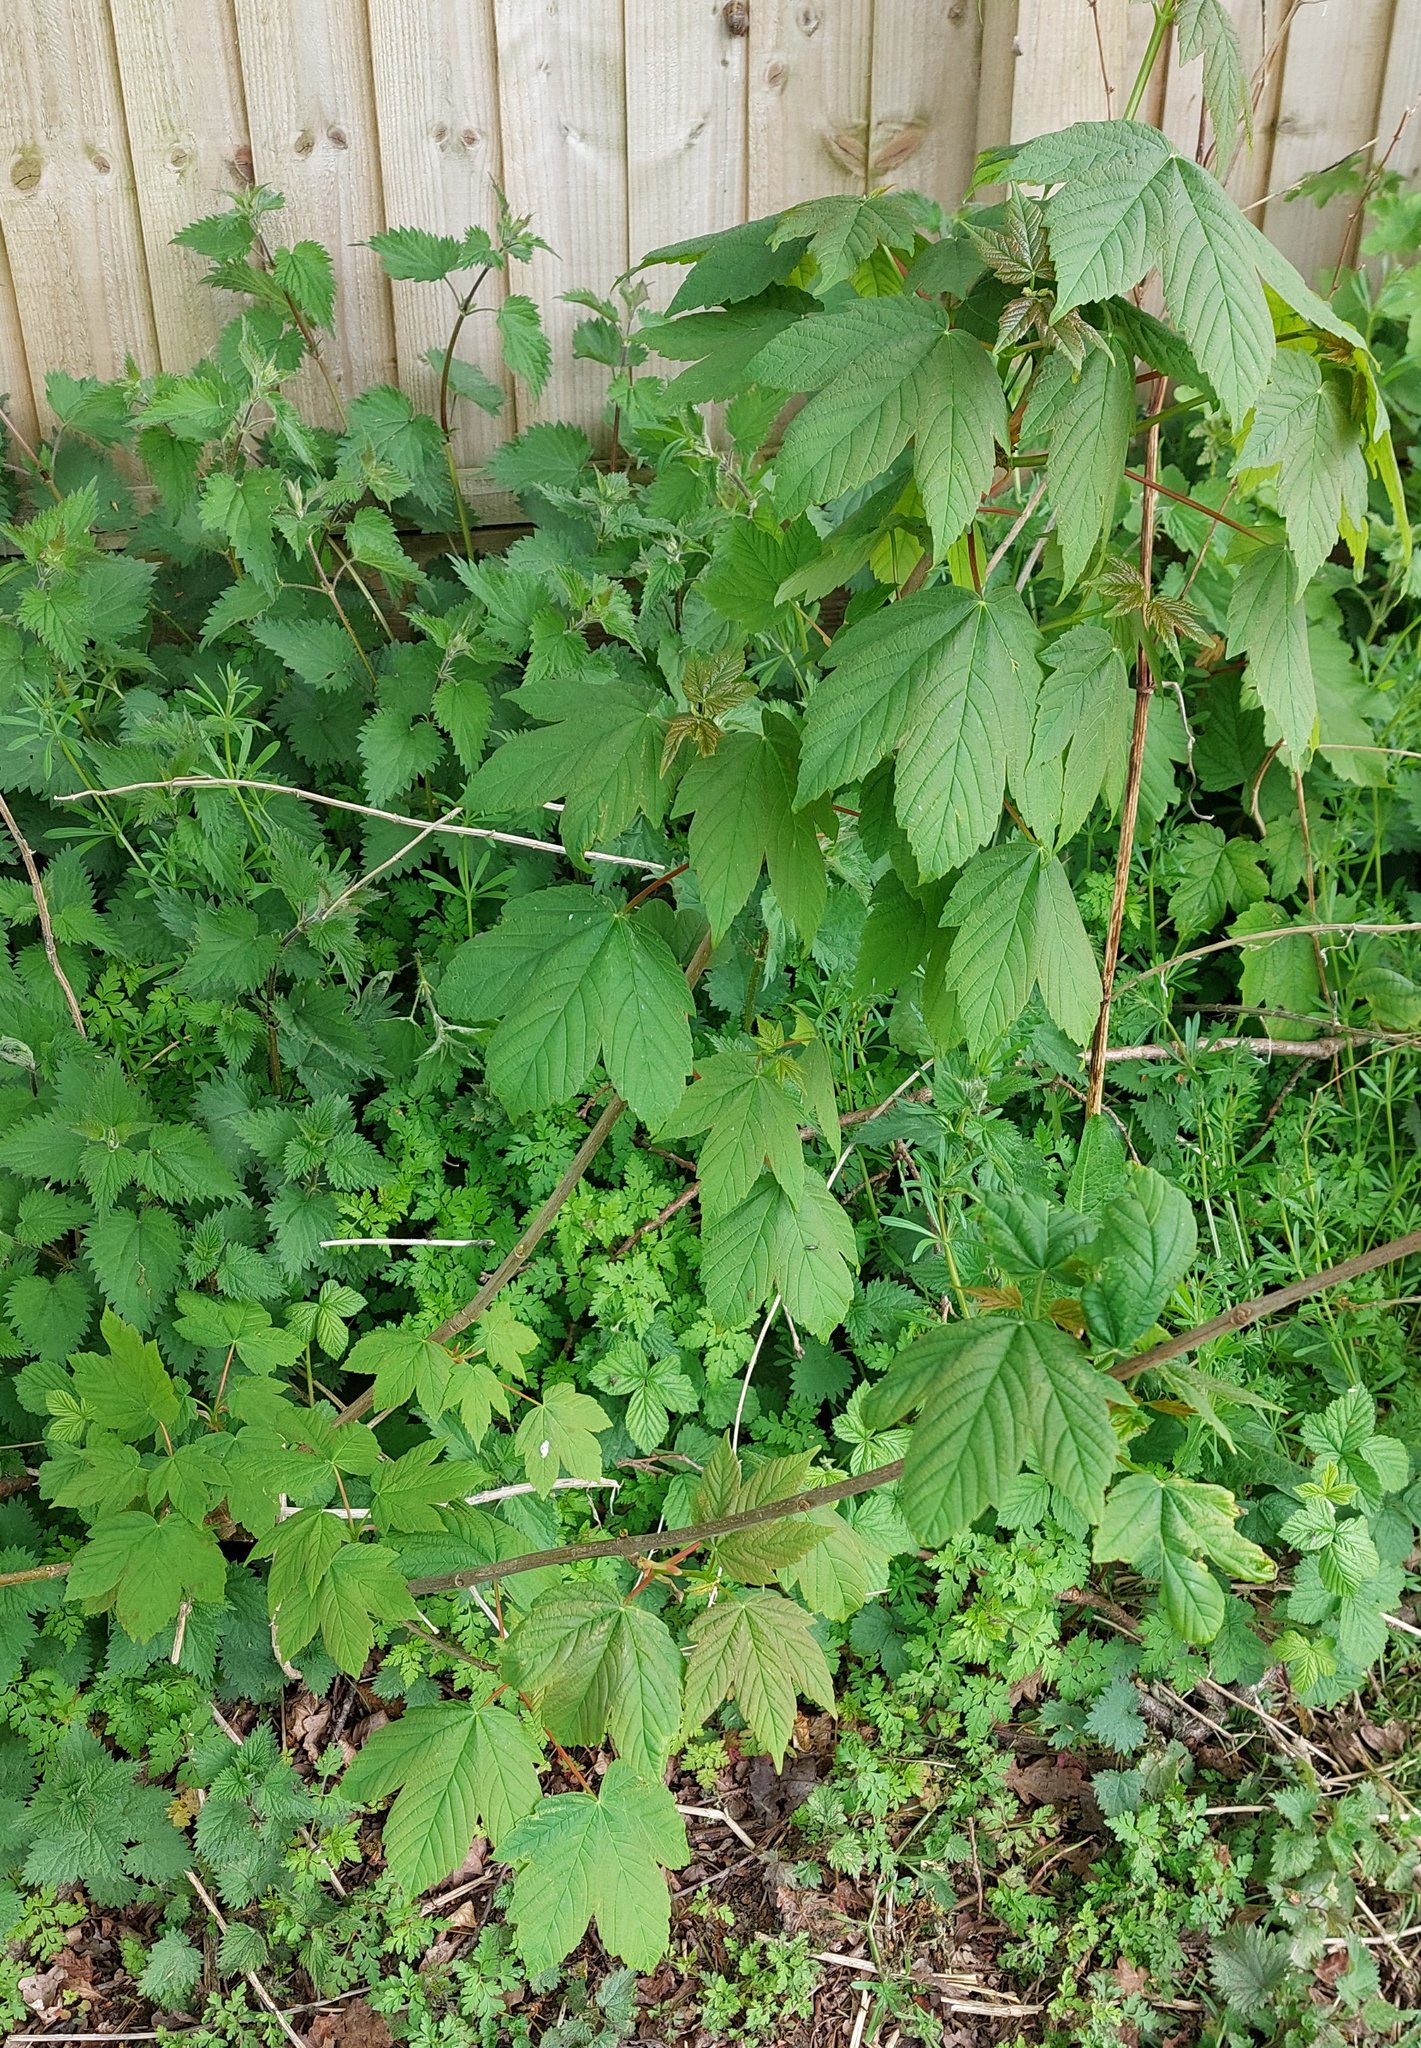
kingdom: Plantae
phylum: Tracheophyta
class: Magnoliopsida
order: Sapindales
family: Sapindaceae
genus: Acer
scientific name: Acer pseudoplatanus
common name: Sycamore
